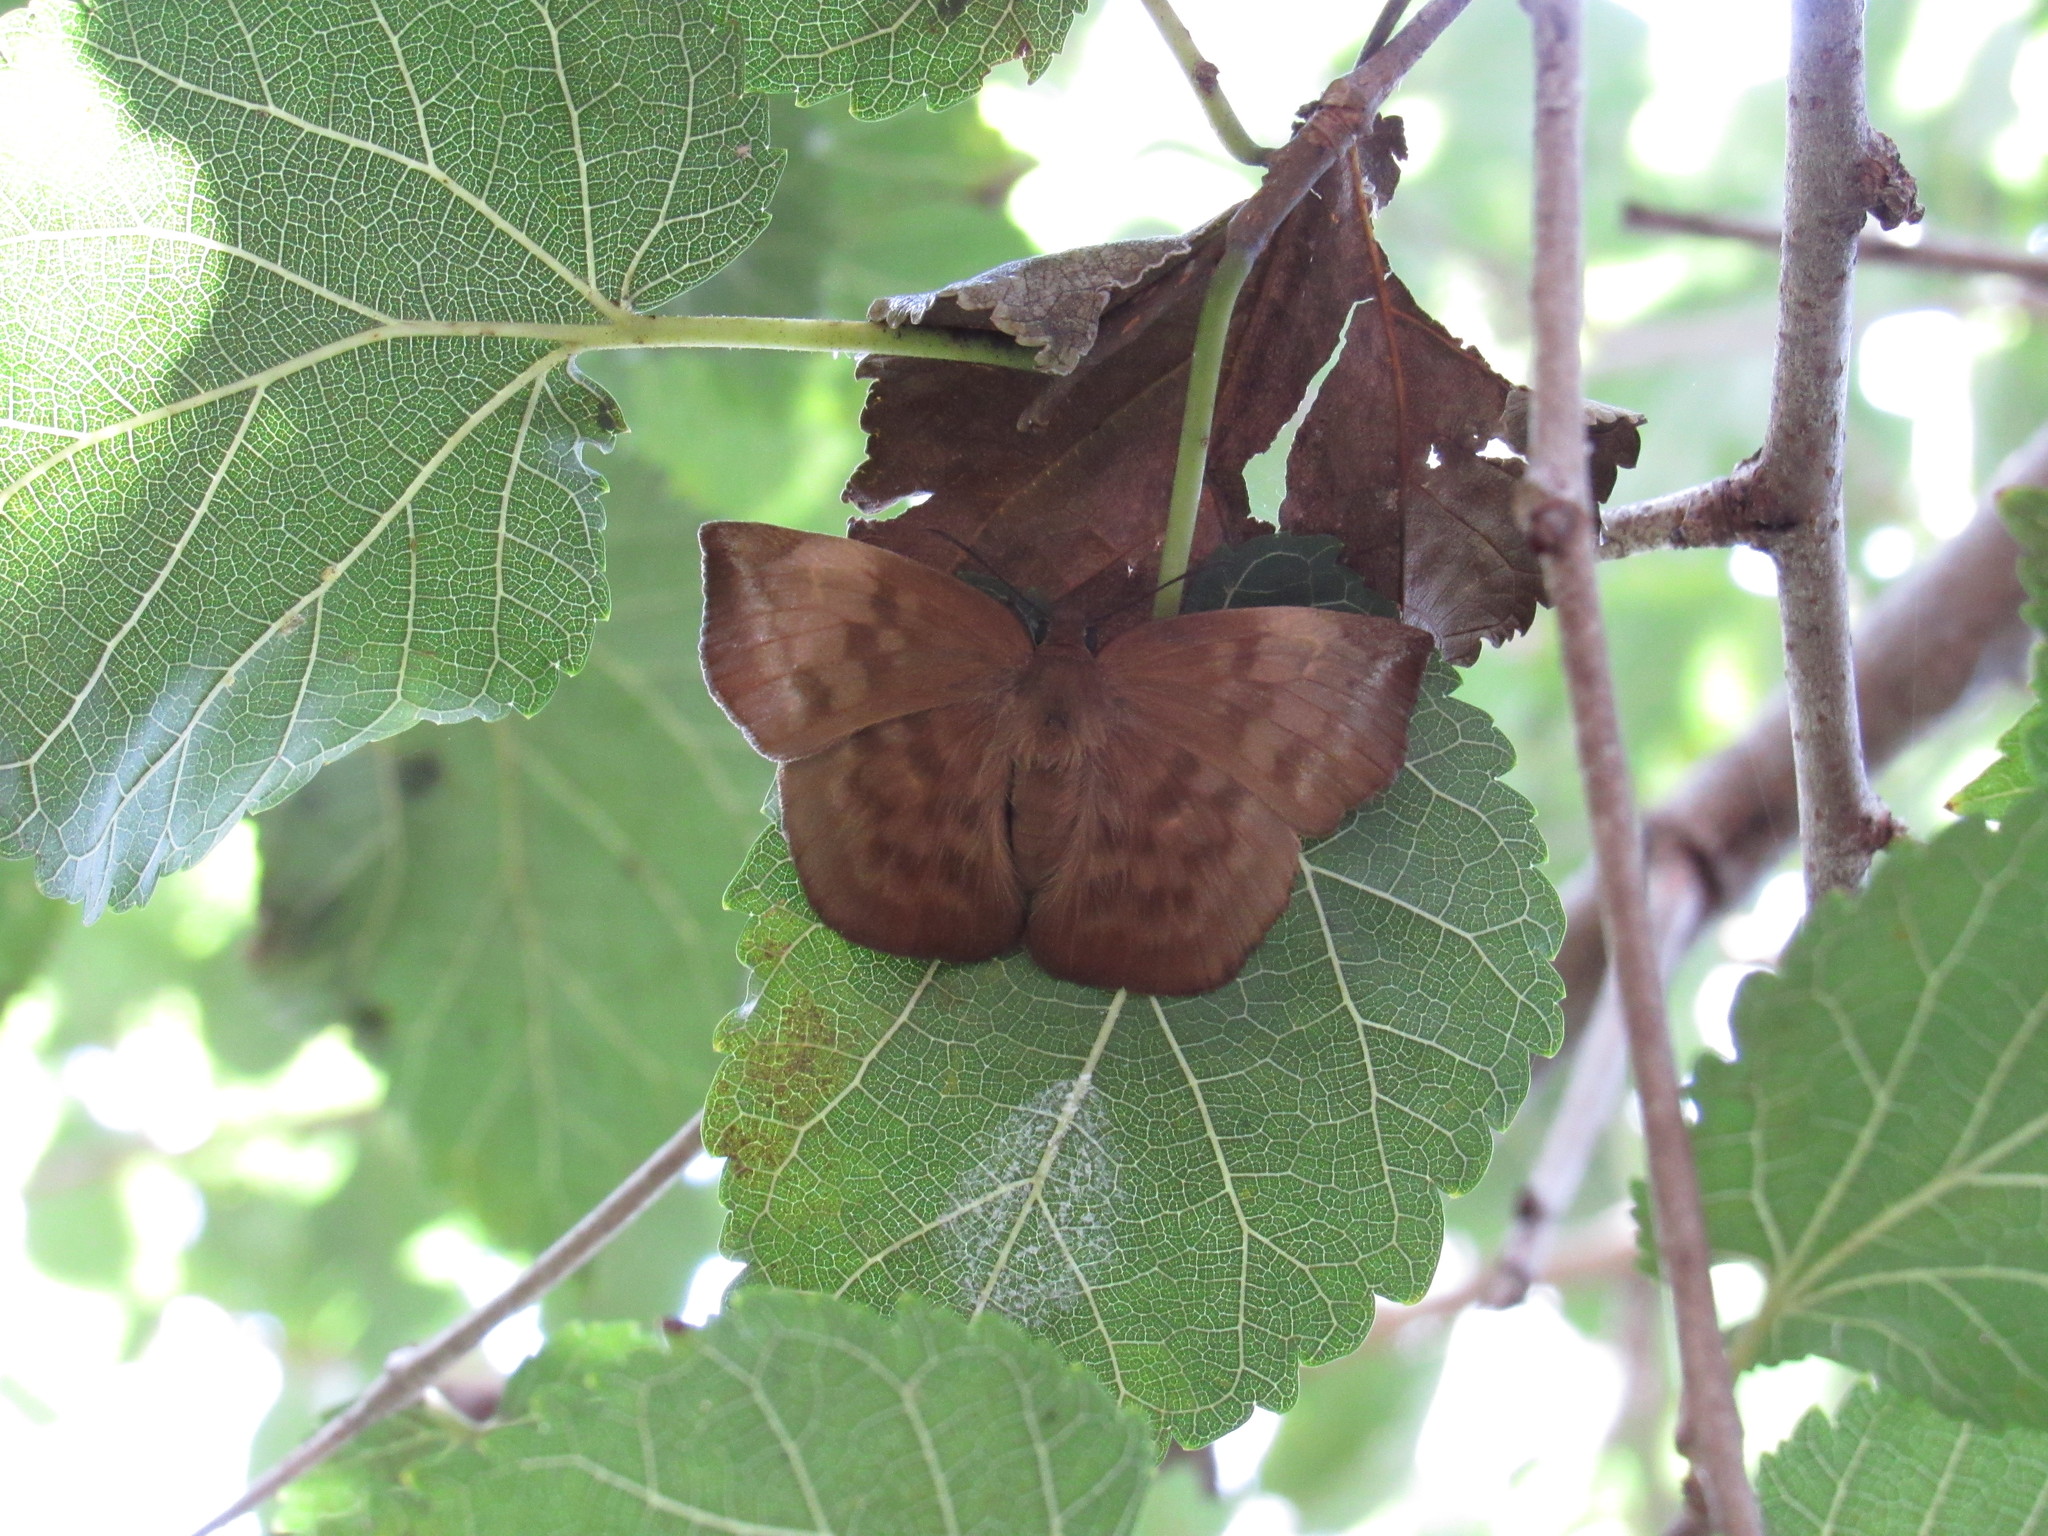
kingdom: Animalia
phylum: Arthropoda
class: Insecta
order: Lepidoptera
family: Hesperiidae
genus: Achlyodes
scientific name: Achlyodes pallida
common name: Pale sicklewing
